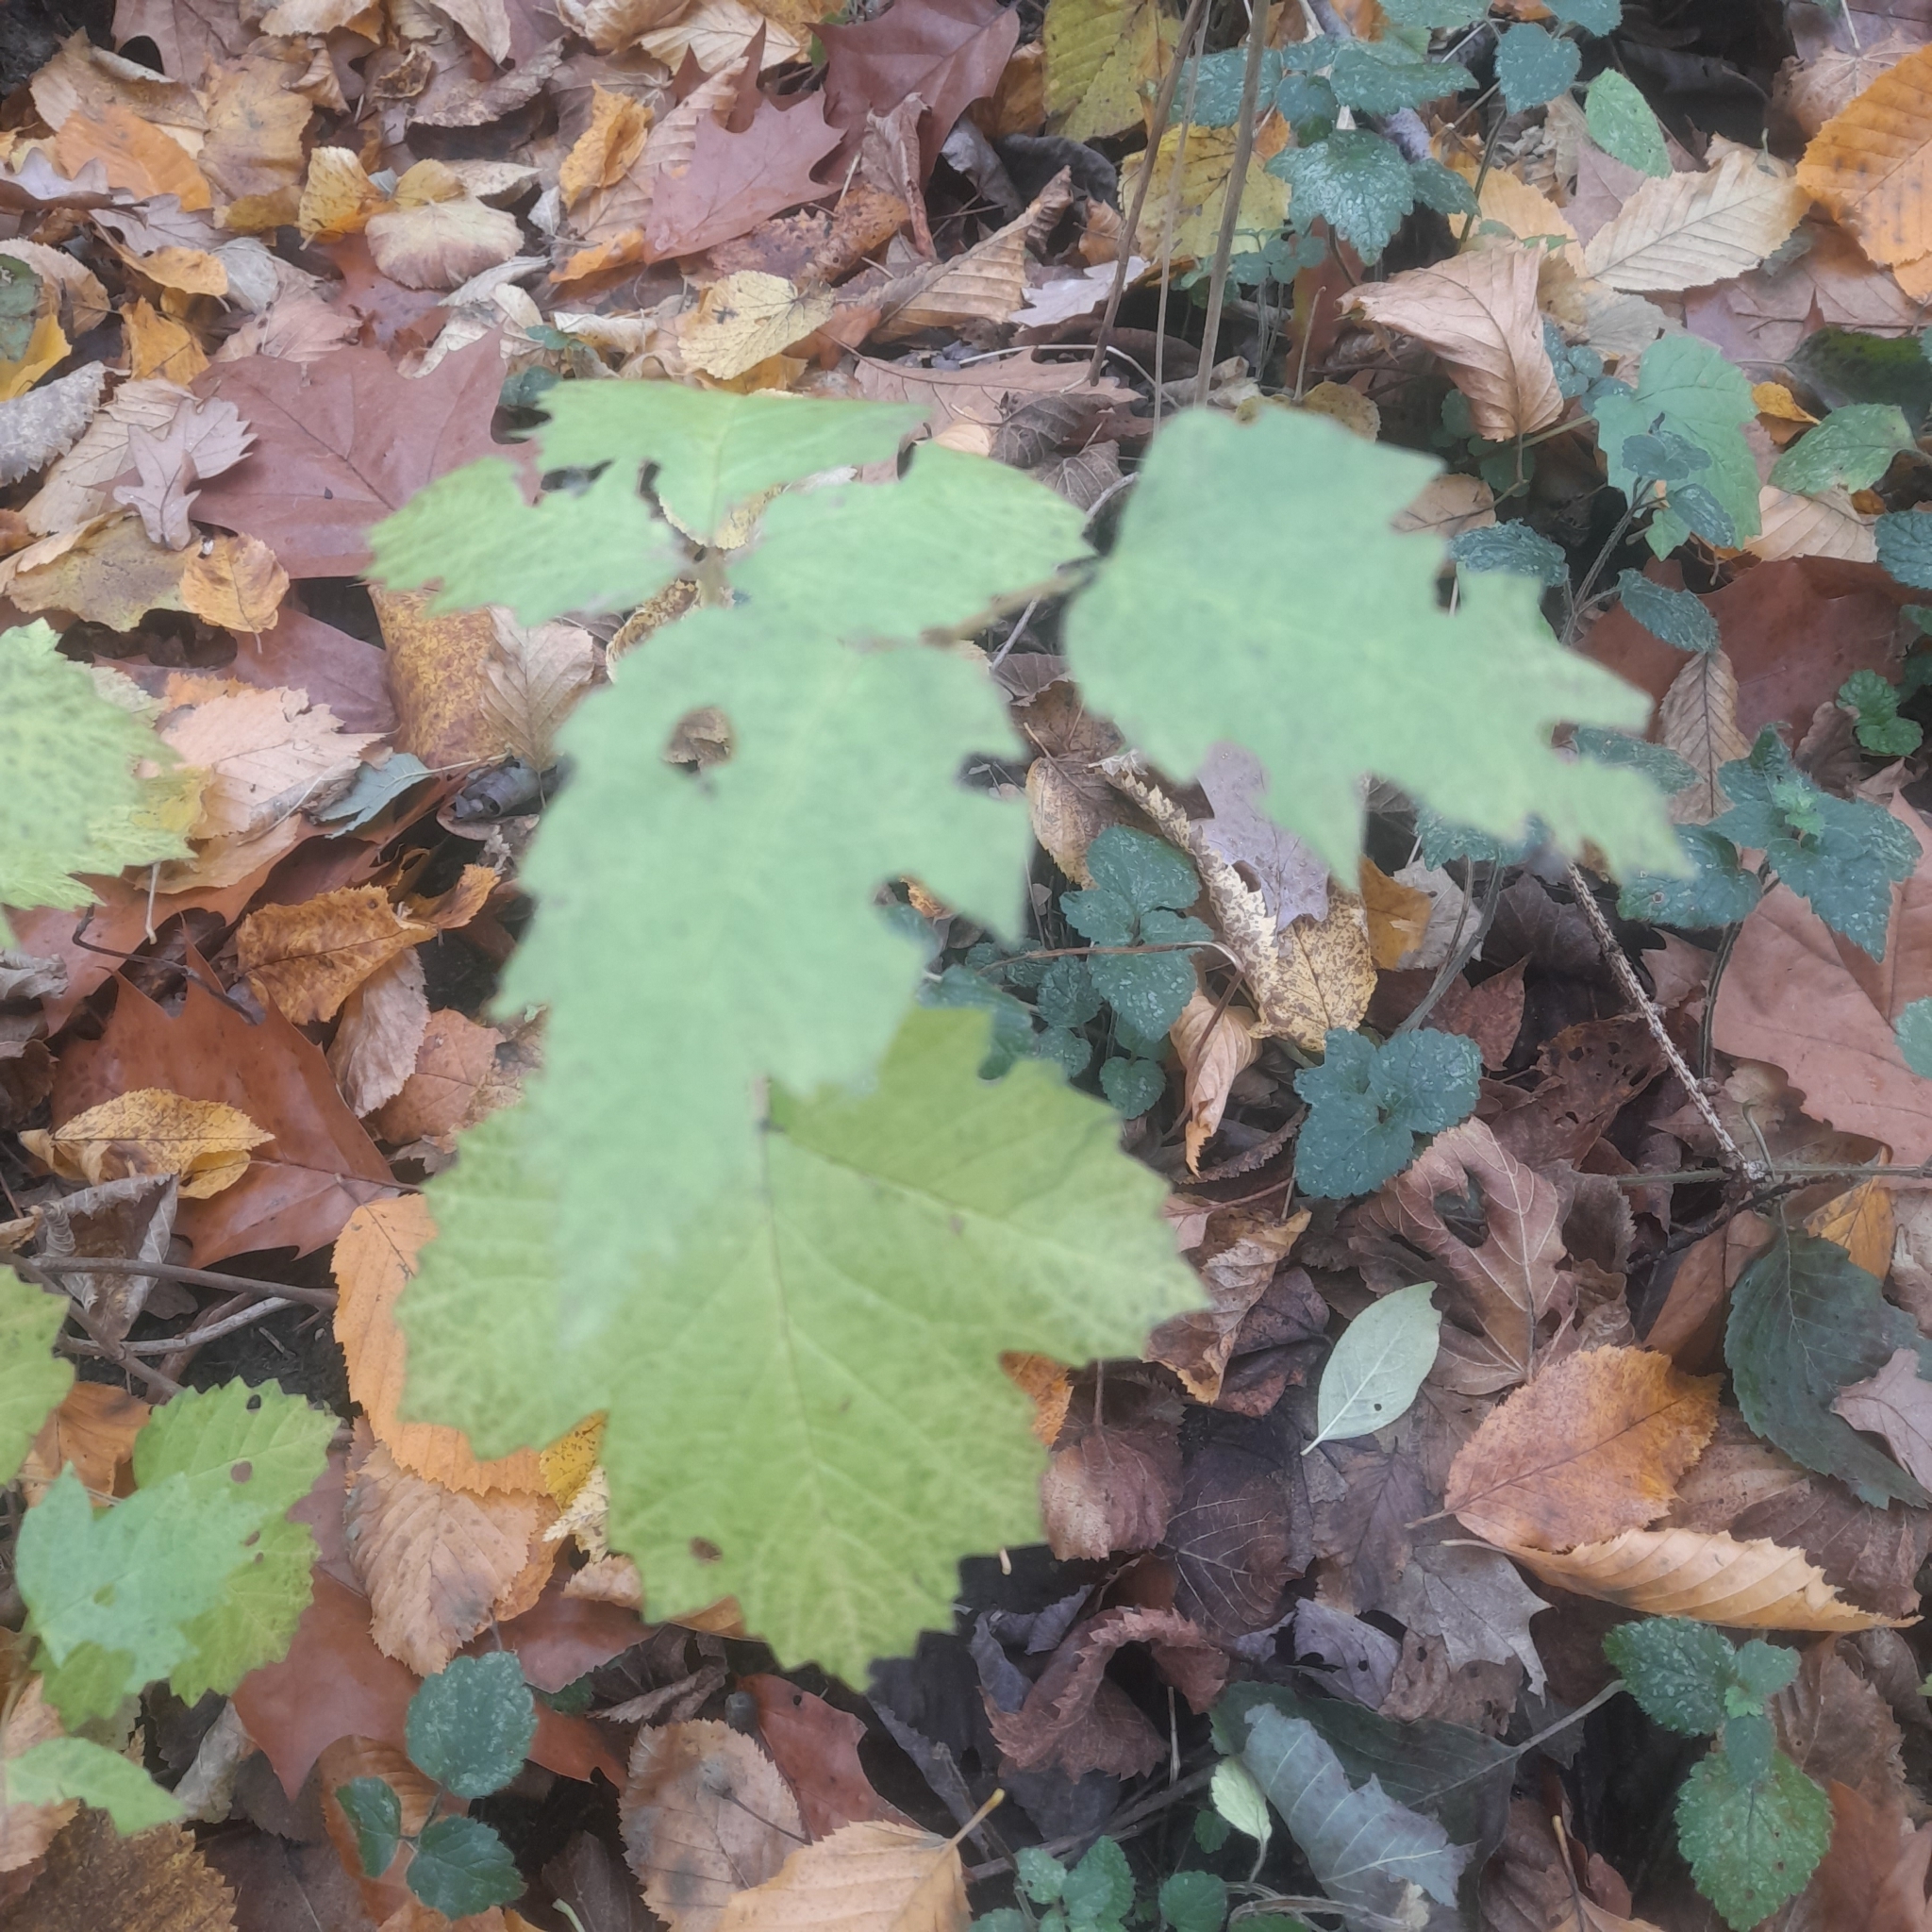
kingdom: Plantae
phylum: Tracheophyta
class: Magnoliopsida
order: Dipsacales
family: Viburnaceae
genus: Viburnum
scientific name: Viburnum opulus
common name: Guelder-rose
